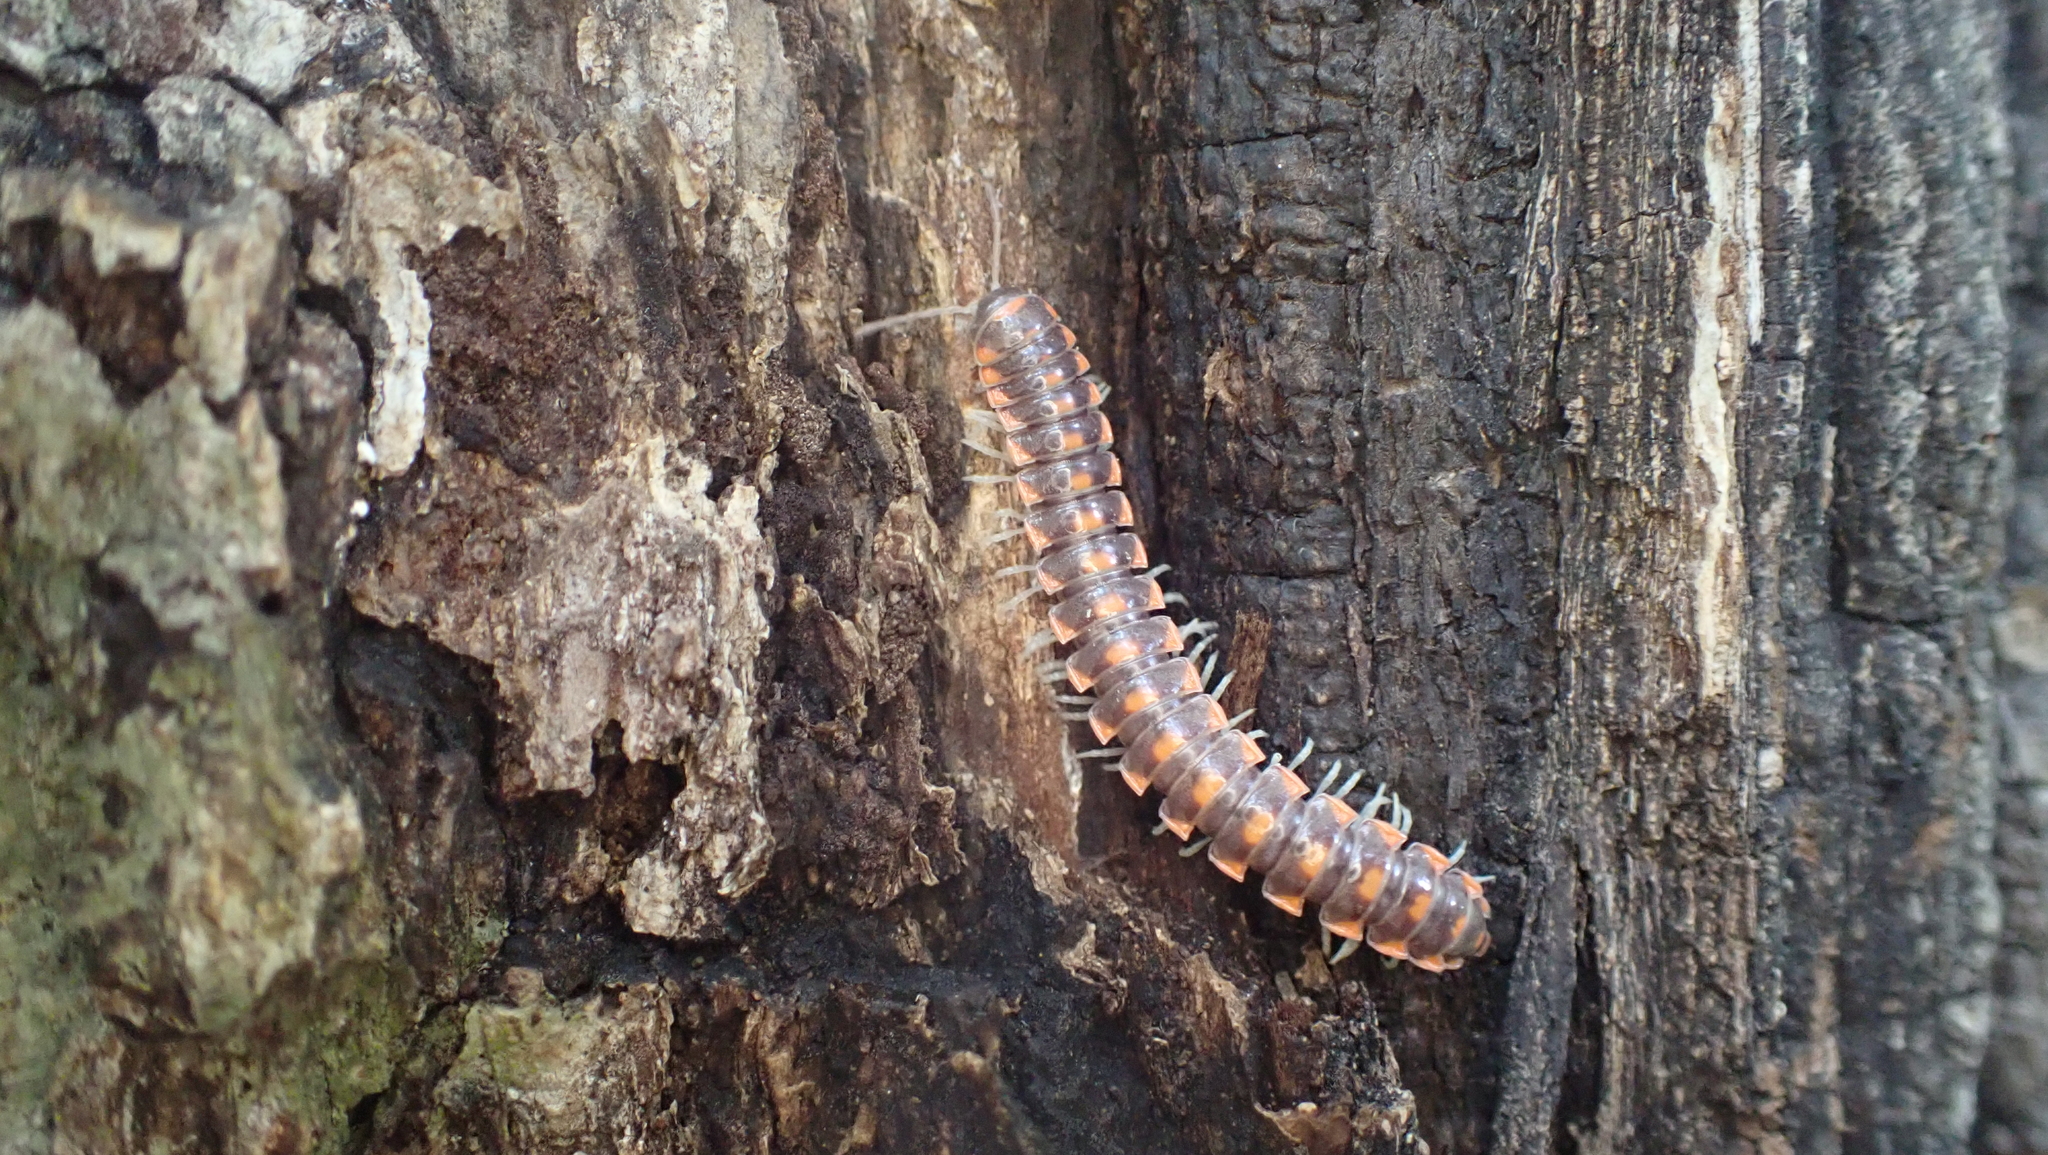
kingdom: Animalia
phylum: Arthropoda
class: Diplopoda
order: Polydesmida
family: Xystodesmidae
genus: Euryurus
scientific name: Euryurus leachii
